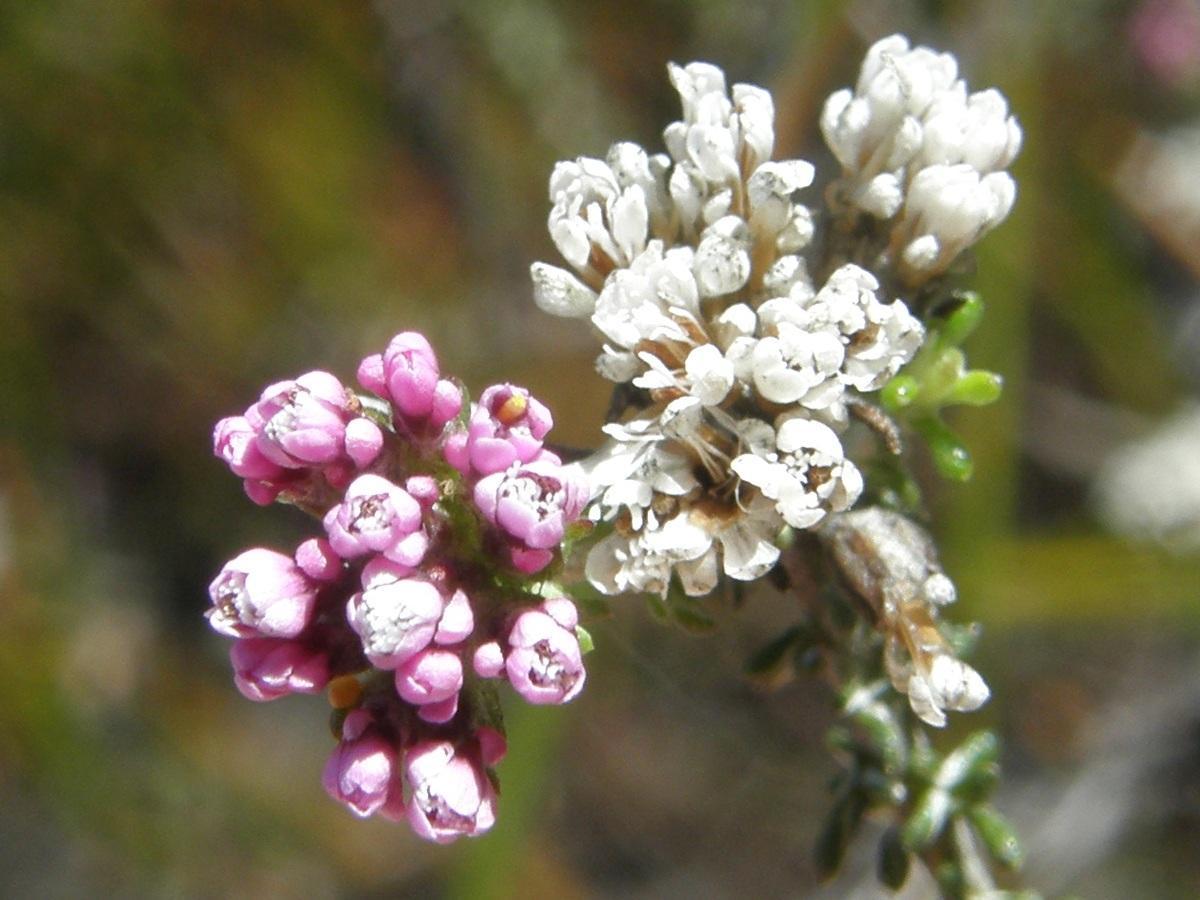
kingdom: Plantae
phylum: Tracheophyta
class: Magnoliopsida
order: Asterales
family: Asteraceae
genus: Metalasia
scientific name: Metalasia tenuis
